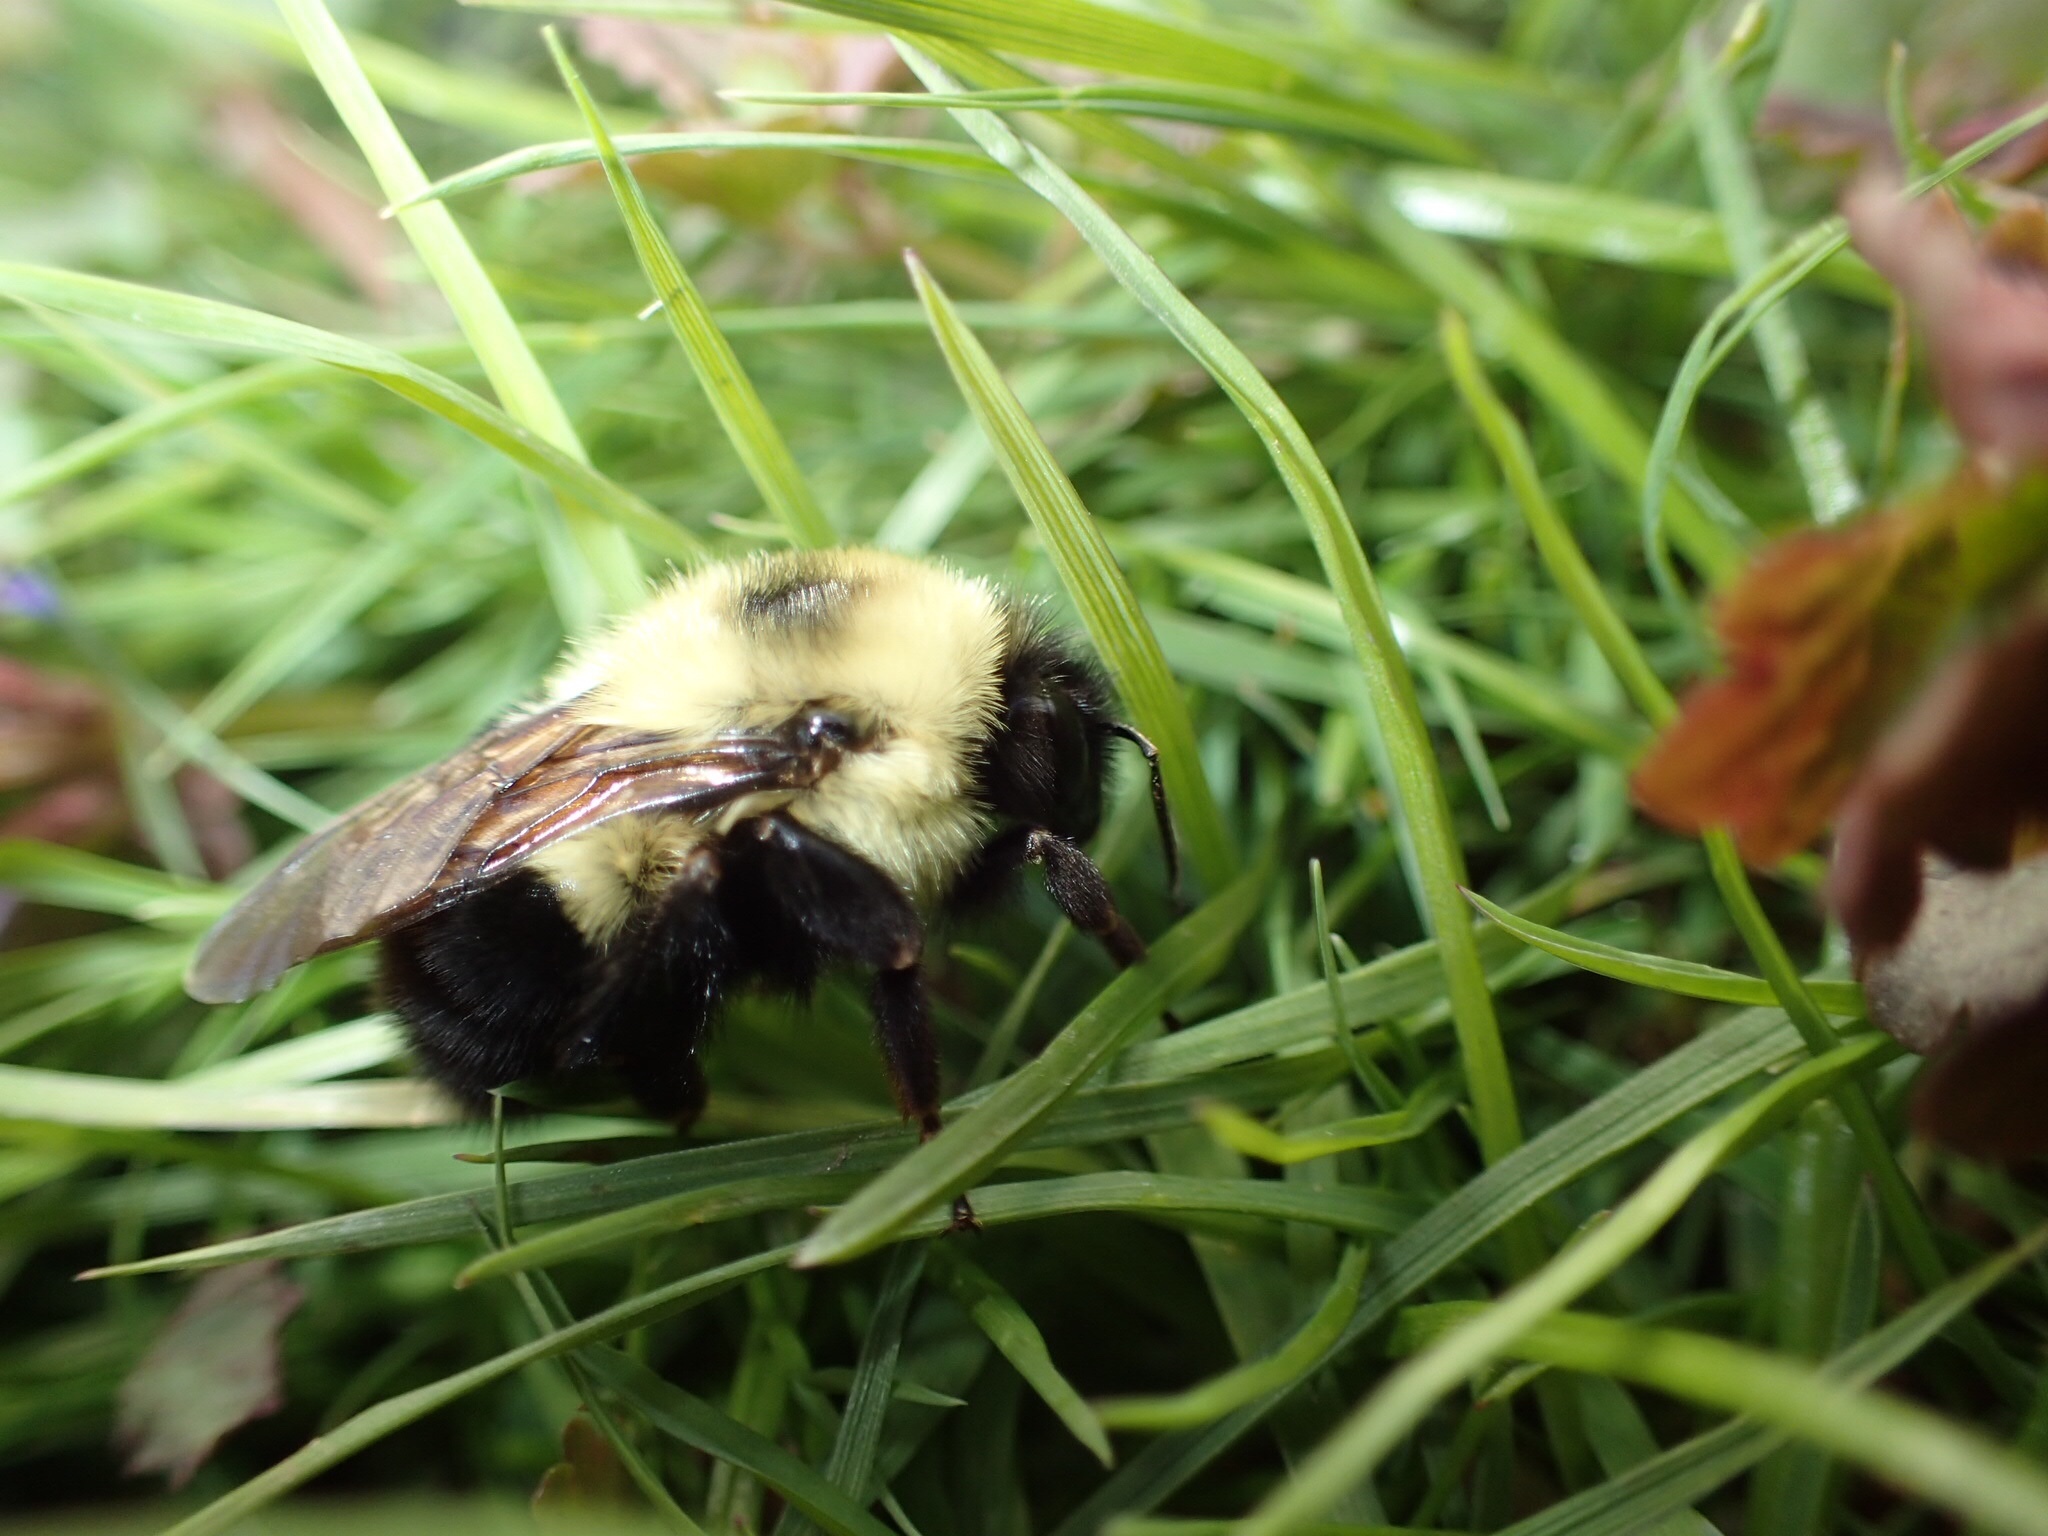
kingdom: Animalia
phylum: Arthropoda
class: Insecta
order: Hymenoptera
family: Apidae
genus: Bombus
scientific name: Bombus bimaculatus
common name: Two-spotted bumble bee
